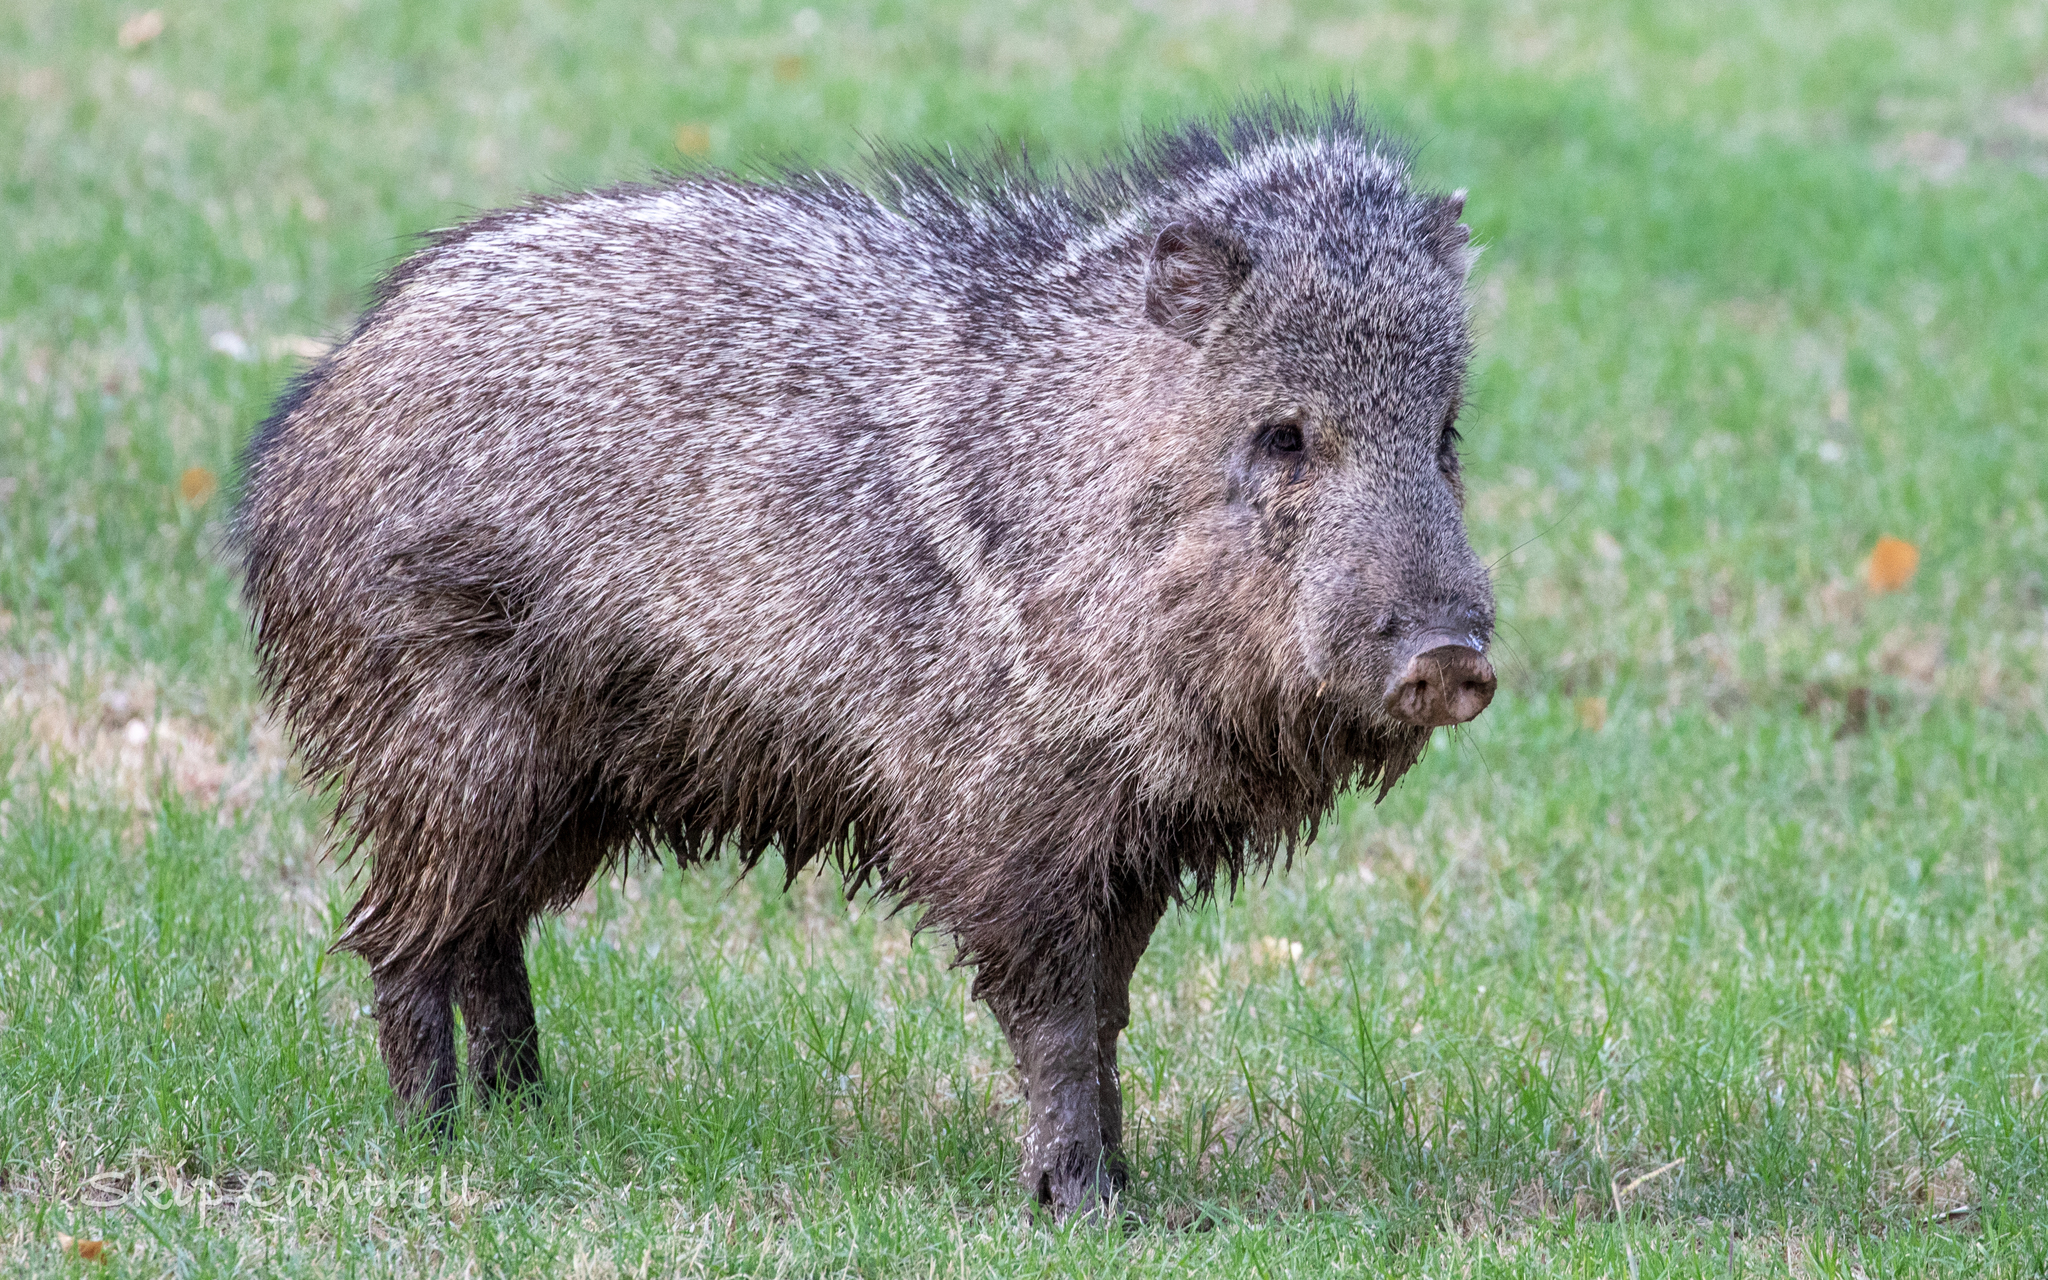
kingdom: Animalia
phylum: Chordata
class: Mammalia
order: Artiodactyla
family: Tayassuidae
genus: Pecari
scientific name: Pecari tajacu
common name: Collared peccary
